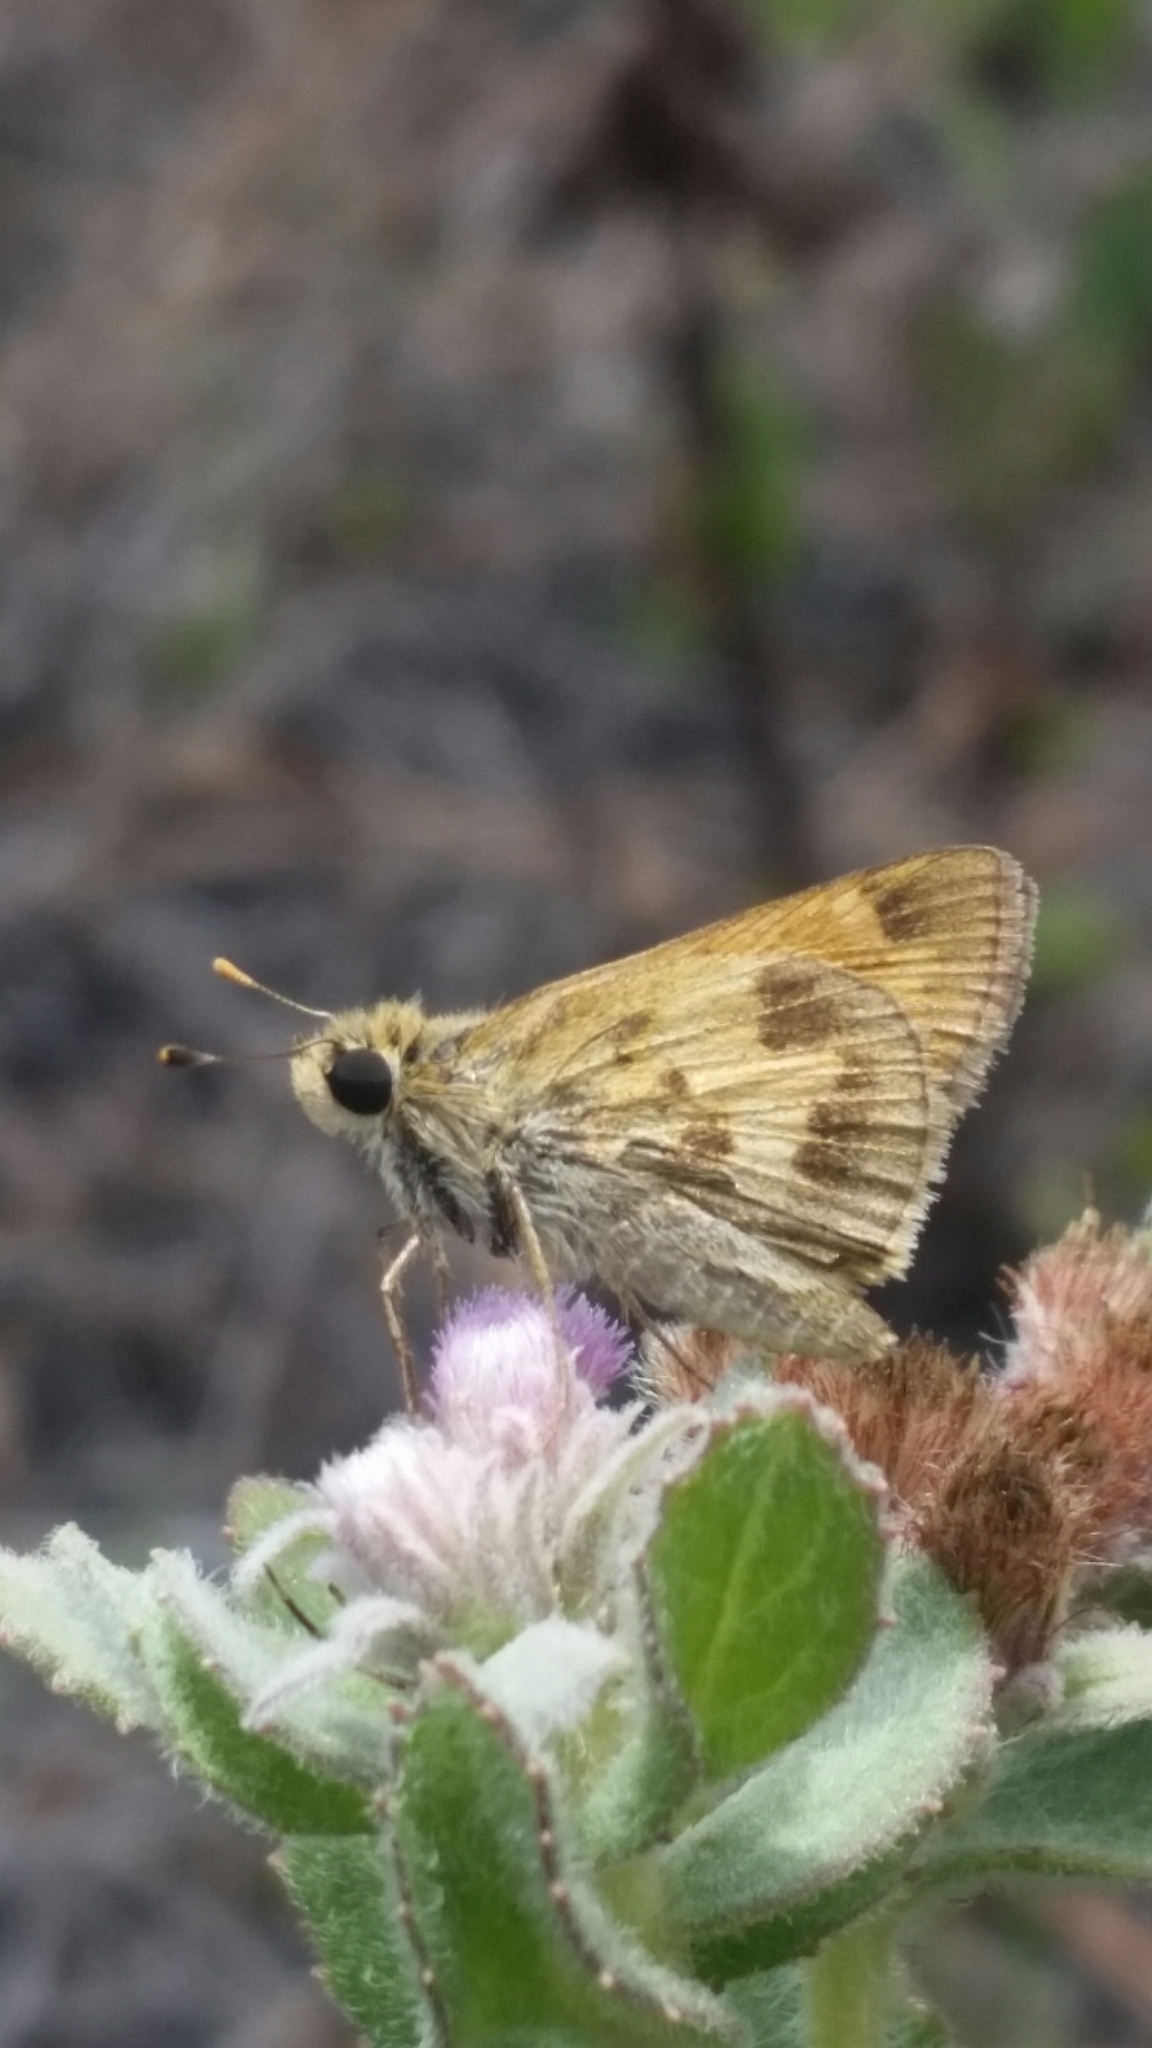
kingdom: Animalia
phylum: Arthropoda
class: Insecta
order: Lepidoptera
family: Hesperiidae
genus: Polites
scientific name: Polites vibex
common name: Whirlabout
